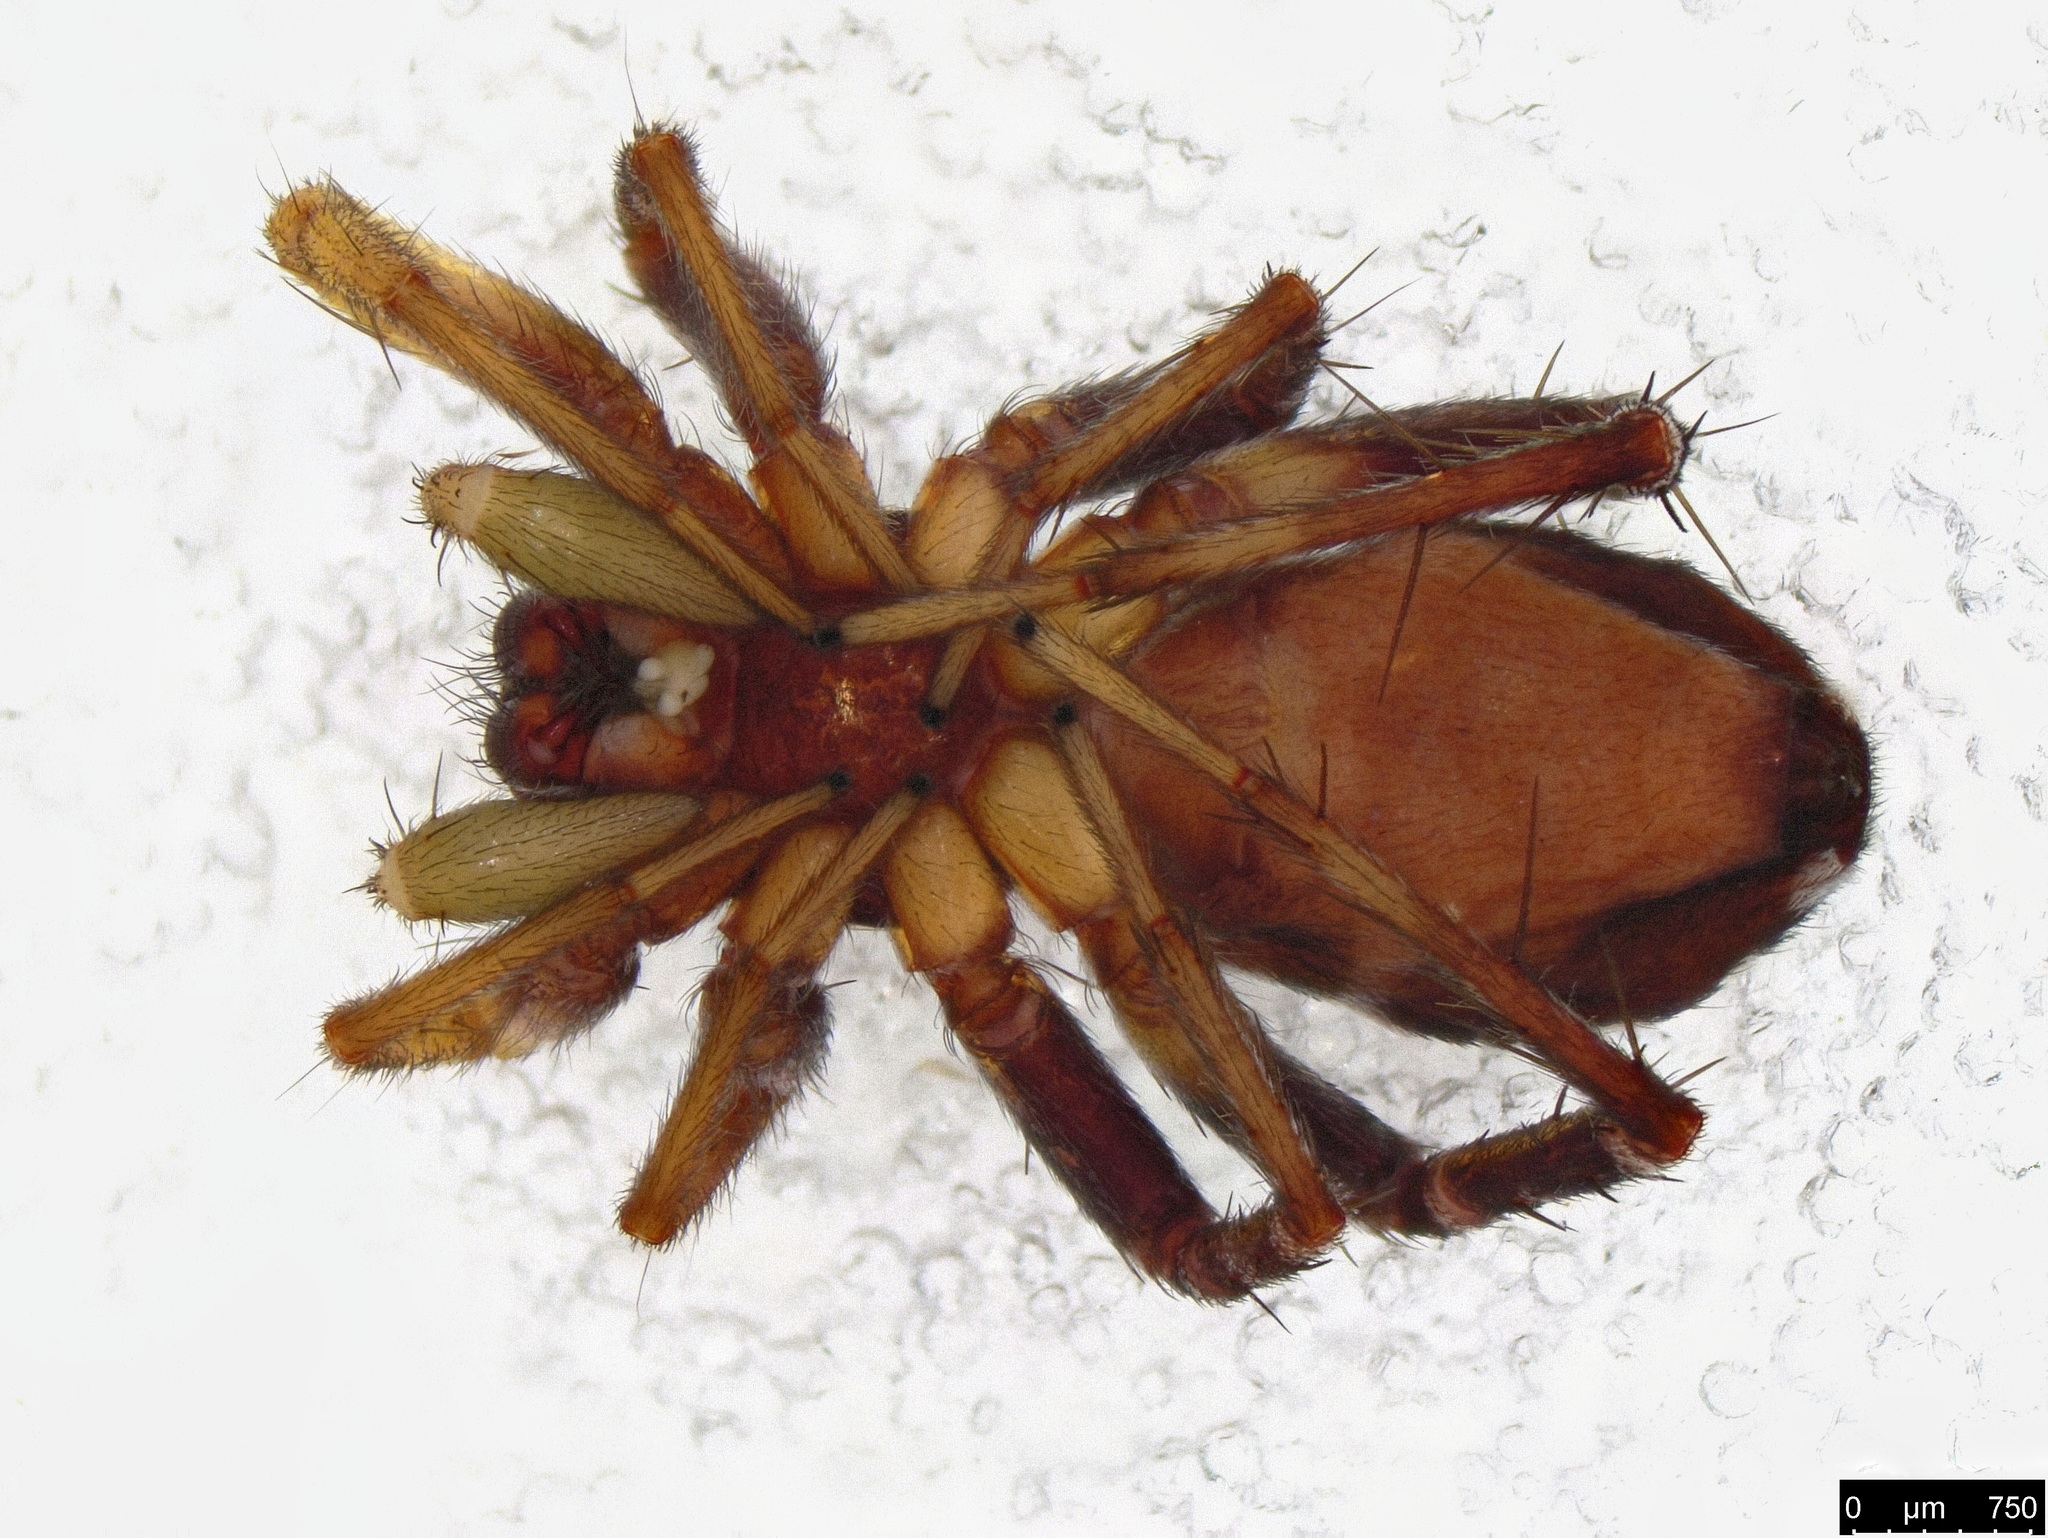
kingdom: Animalia
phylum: Arthropoda
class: Arachnida
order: Araneae
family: Corinnidae
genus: Nyssus
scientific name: Nyssus coloripes
